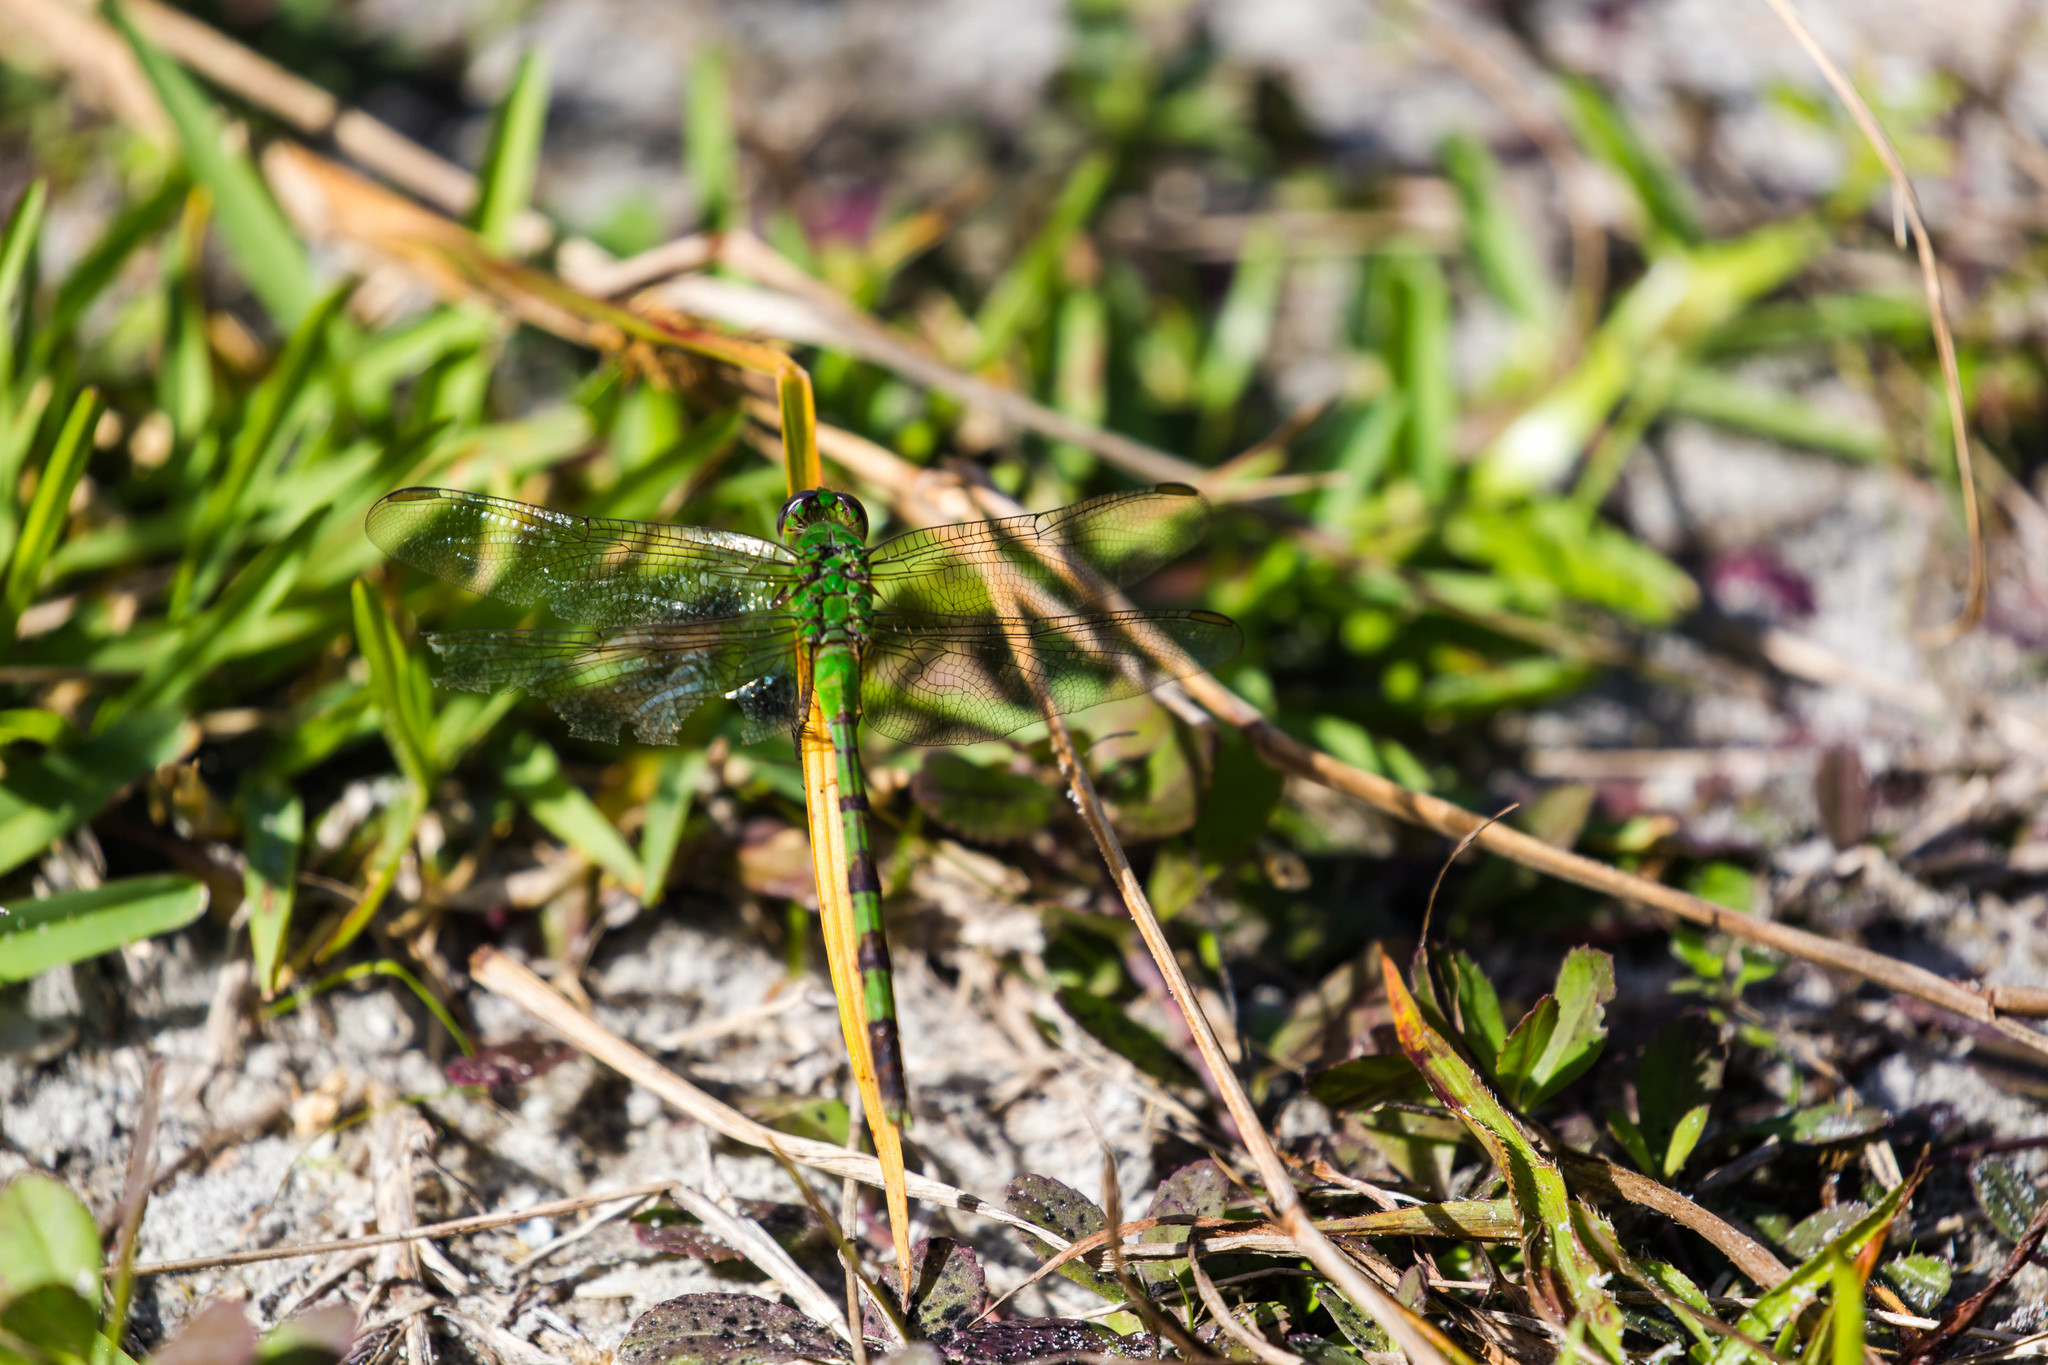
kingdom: Animalia
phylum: Arthropoda
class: Insecta
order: Odonata
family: Libellulidae
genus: Erythemis
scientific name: Erythemis vesiculosa
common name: Great pondhawk
